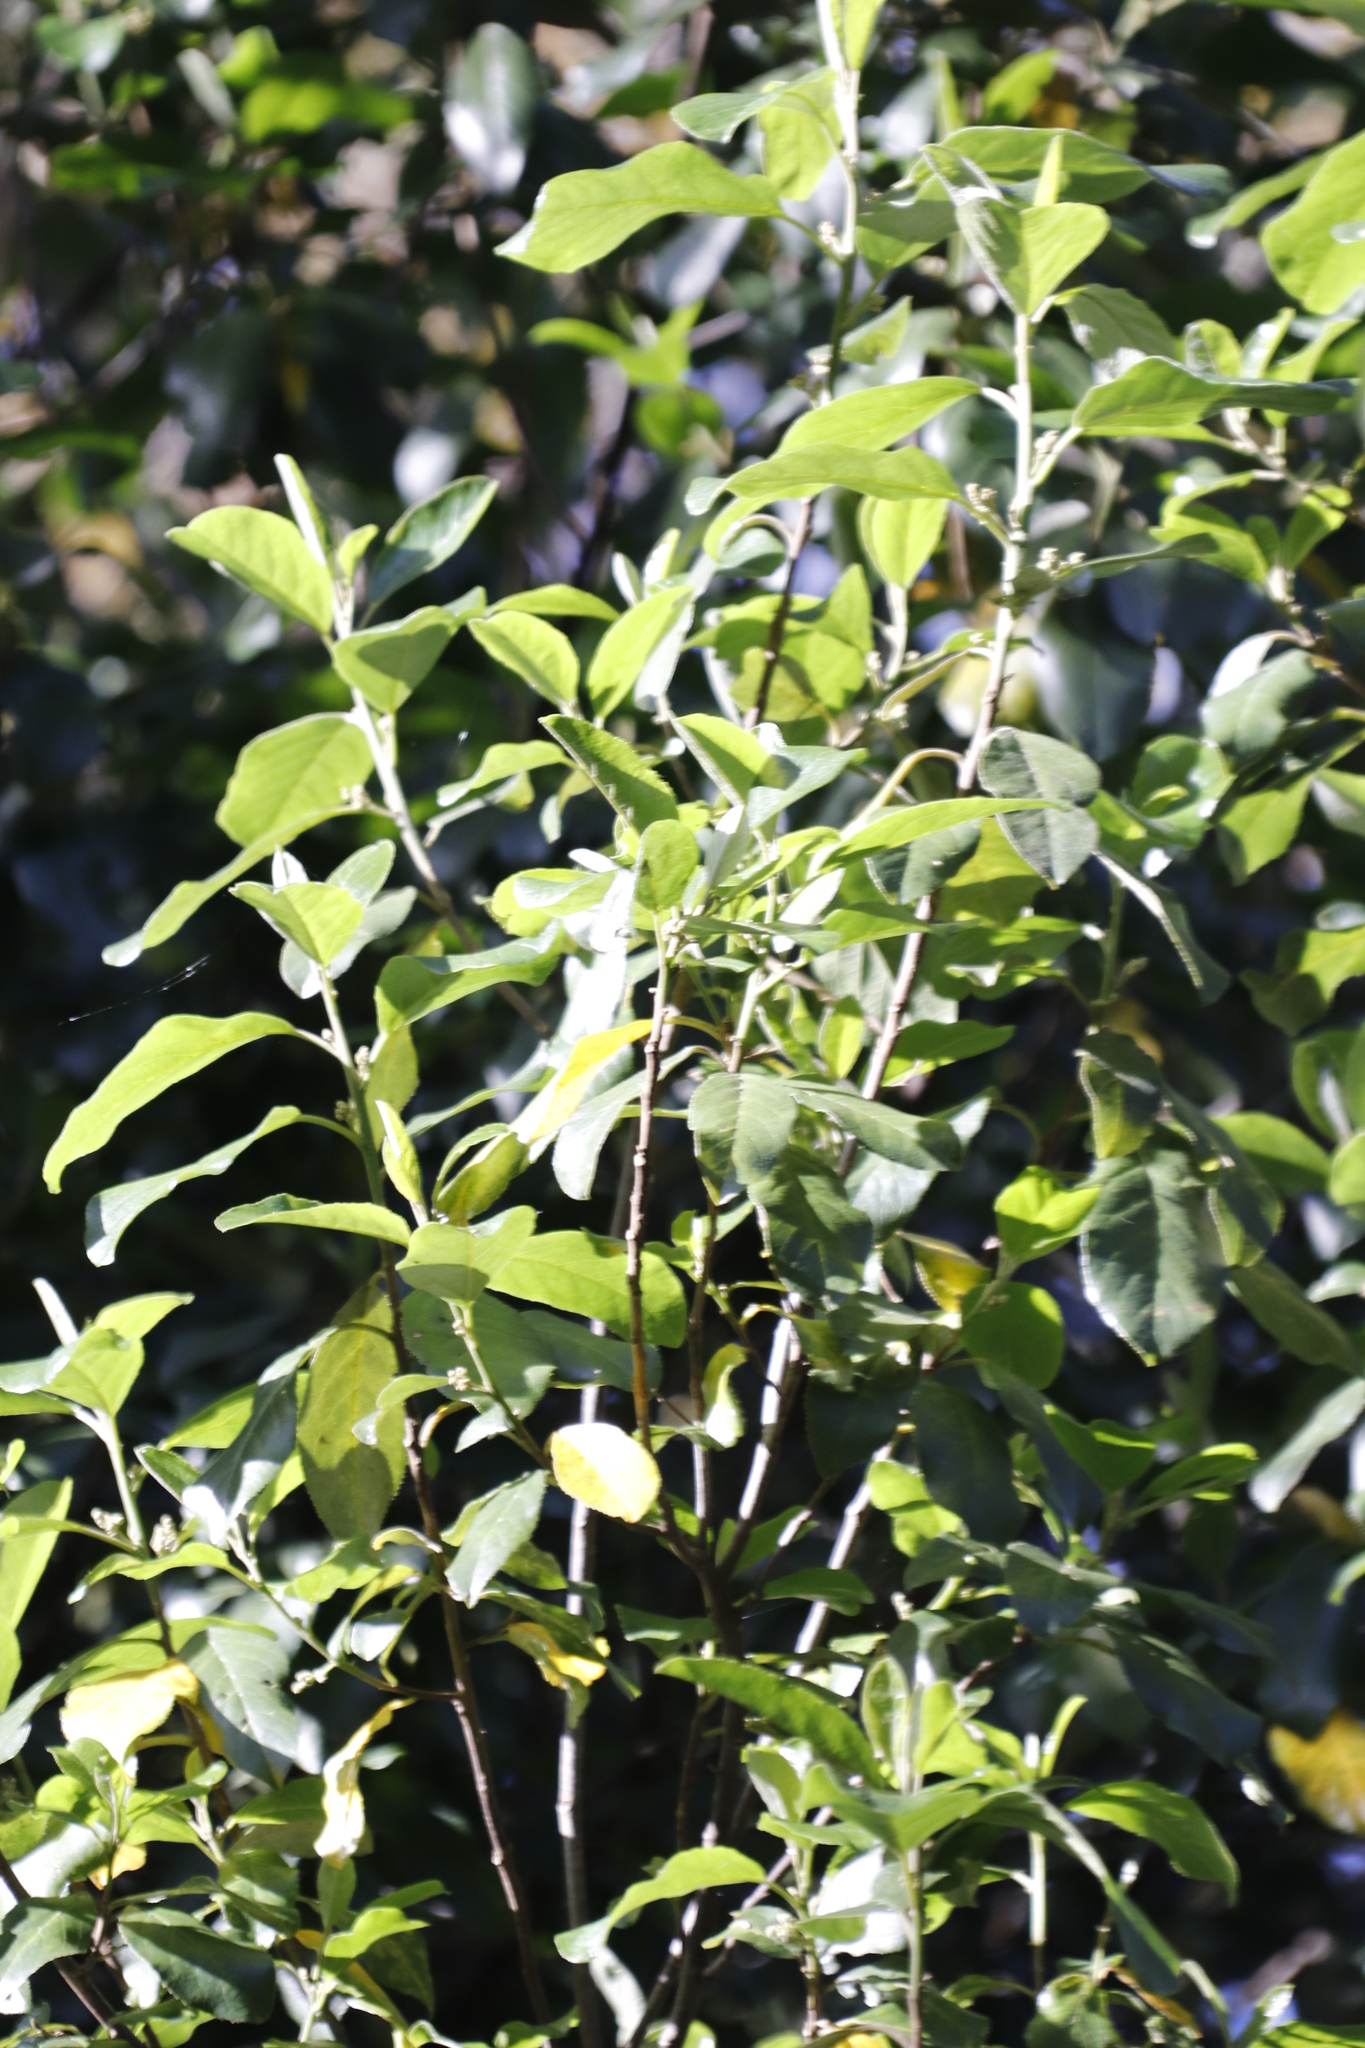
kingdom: Plantae
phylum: Tracheophyta
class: Magnoliopsida
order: Malpighiales
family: Achariaceae
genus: Kiggelaria
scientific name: Kiggelaria africana
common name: Wild peach
